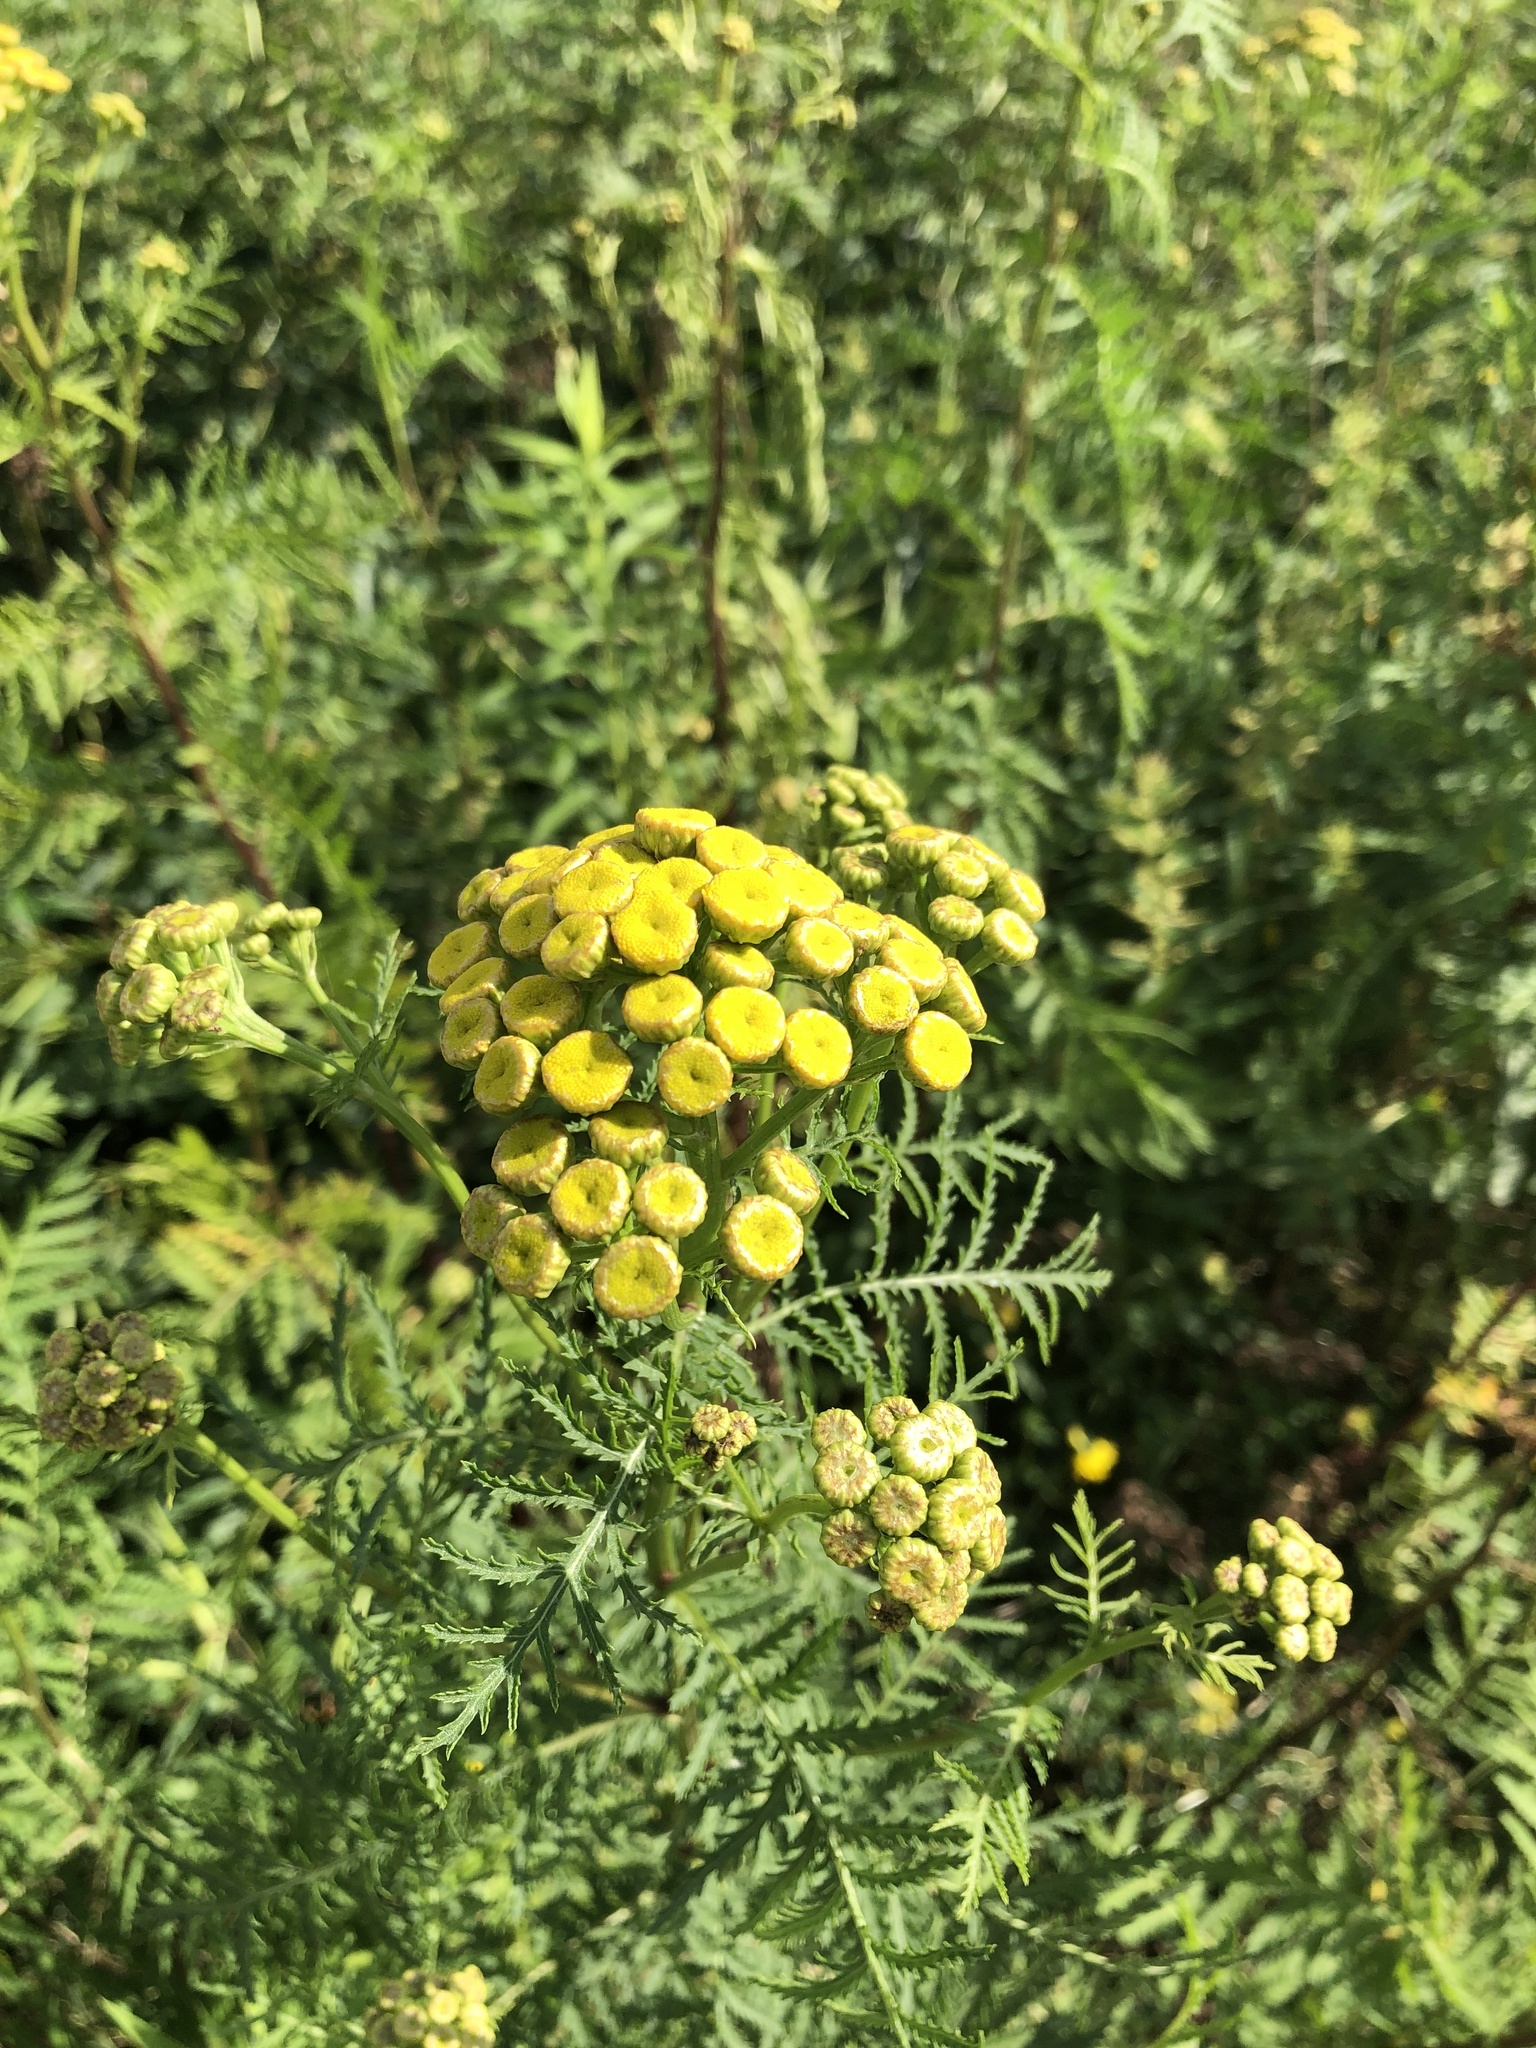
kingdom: Plantae
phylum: Tracheophyta
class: Magnoliopsida
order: Asterales
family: Asteraceae
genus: Tanacetum
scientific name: Tanacetum vulgare
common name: Common tansy
